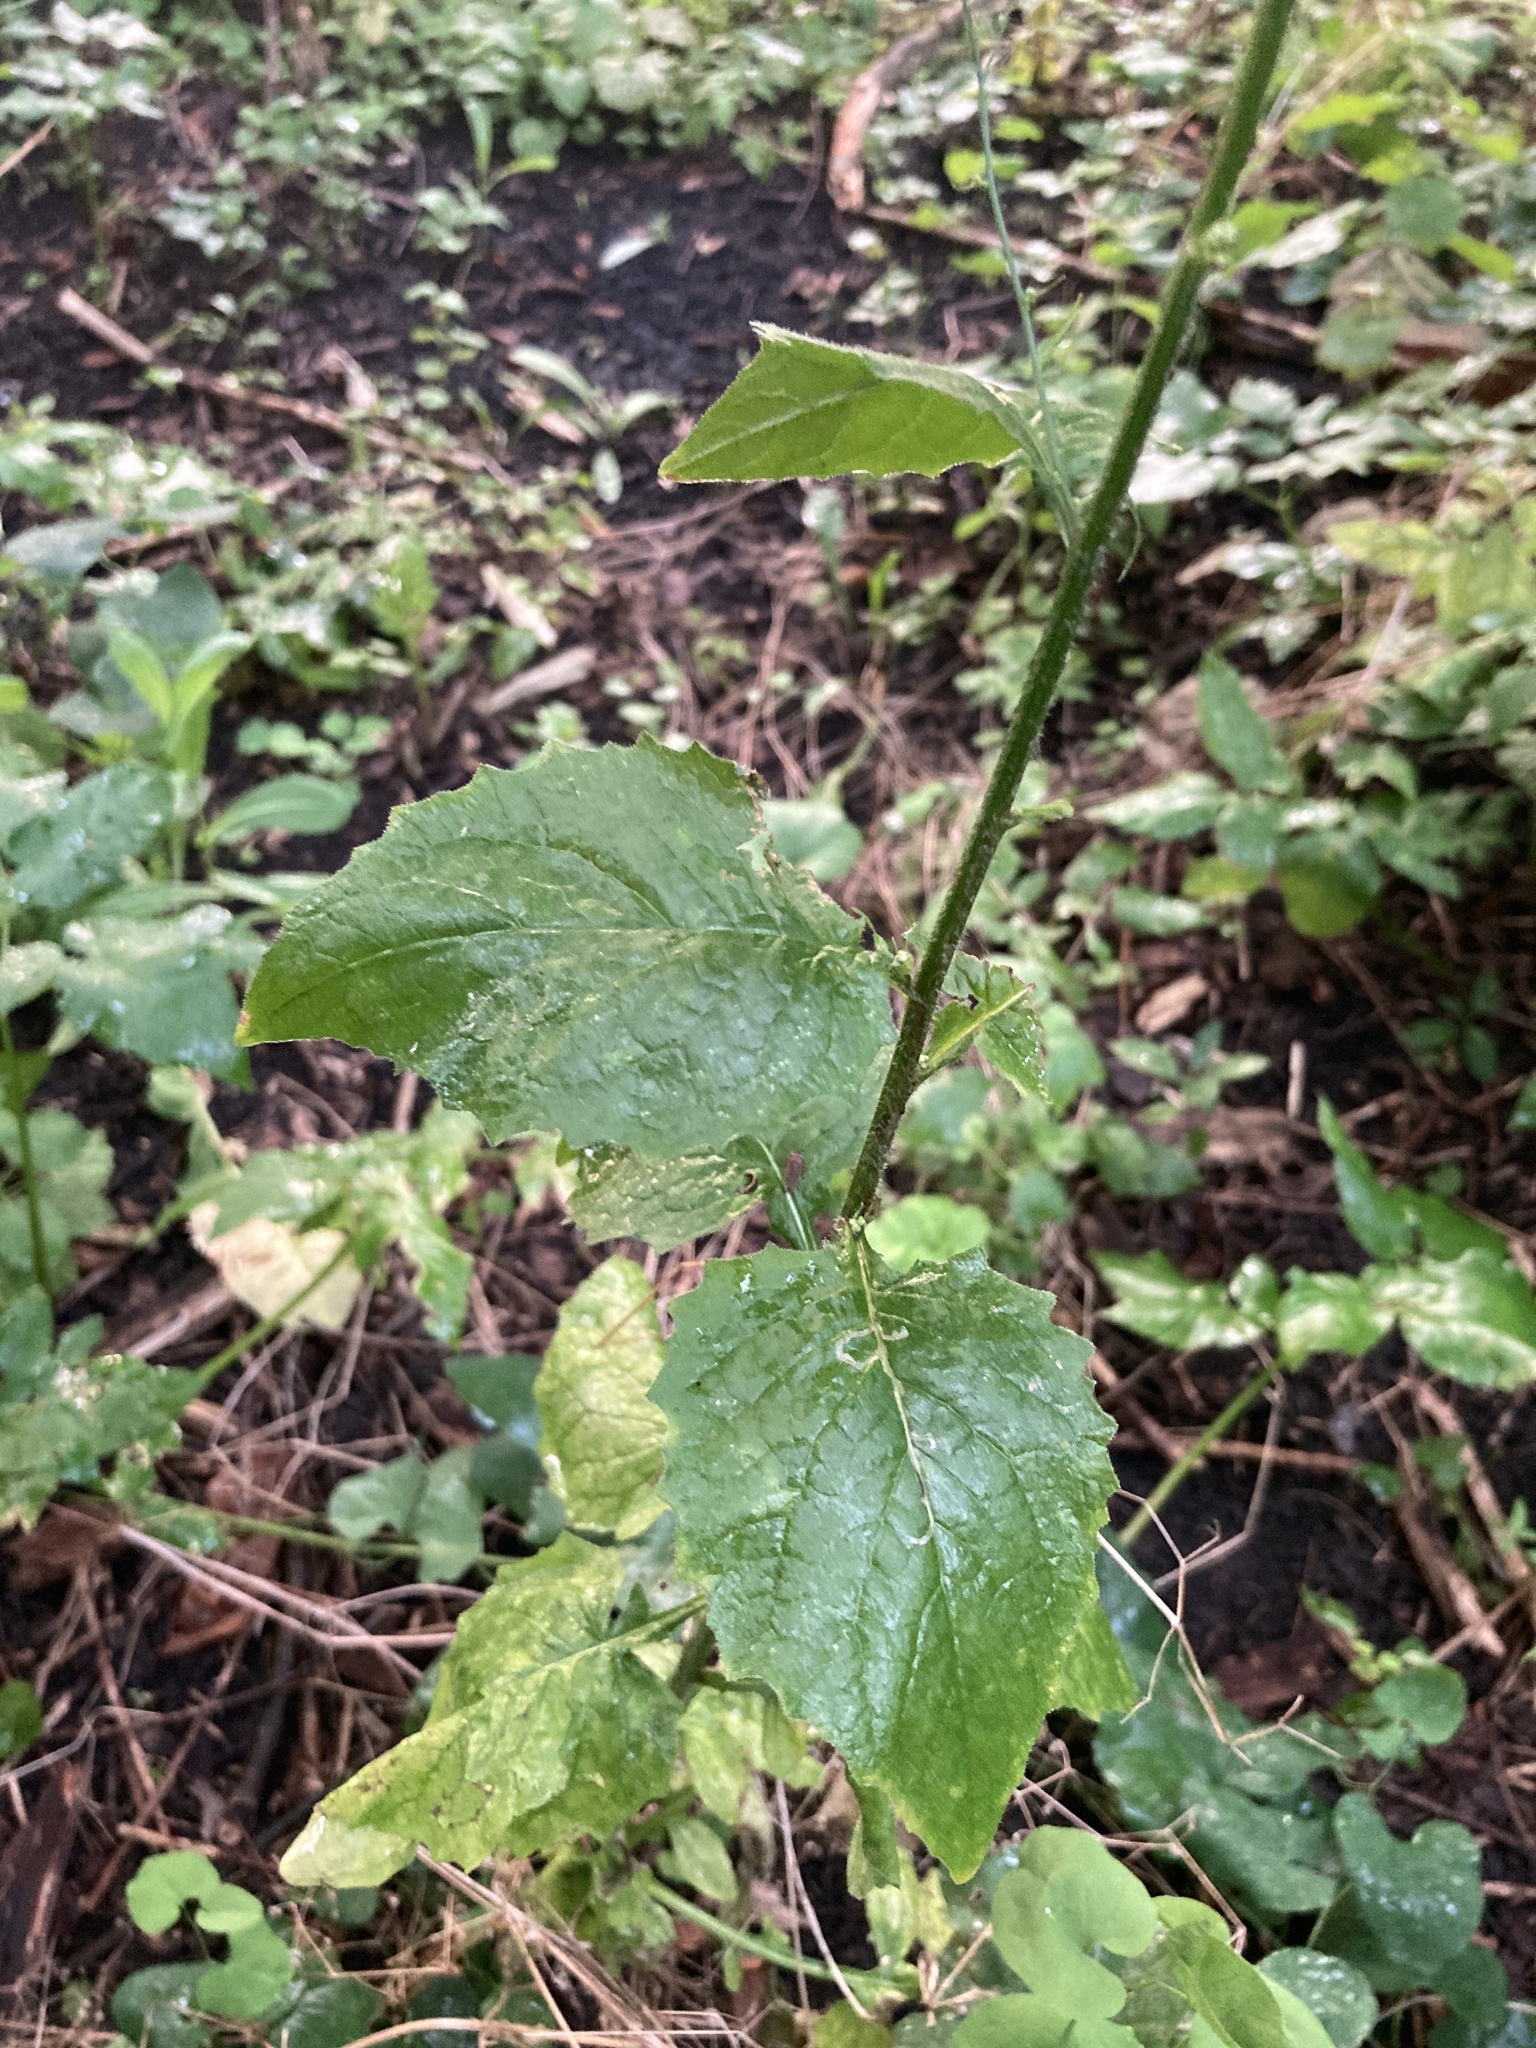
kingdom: Plantae
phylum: Tracheophyta
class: Magnoliopsida
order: Asterales
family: Asteraceae
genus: Lapsana
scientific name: Lapsana communis
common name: Nipplewort
